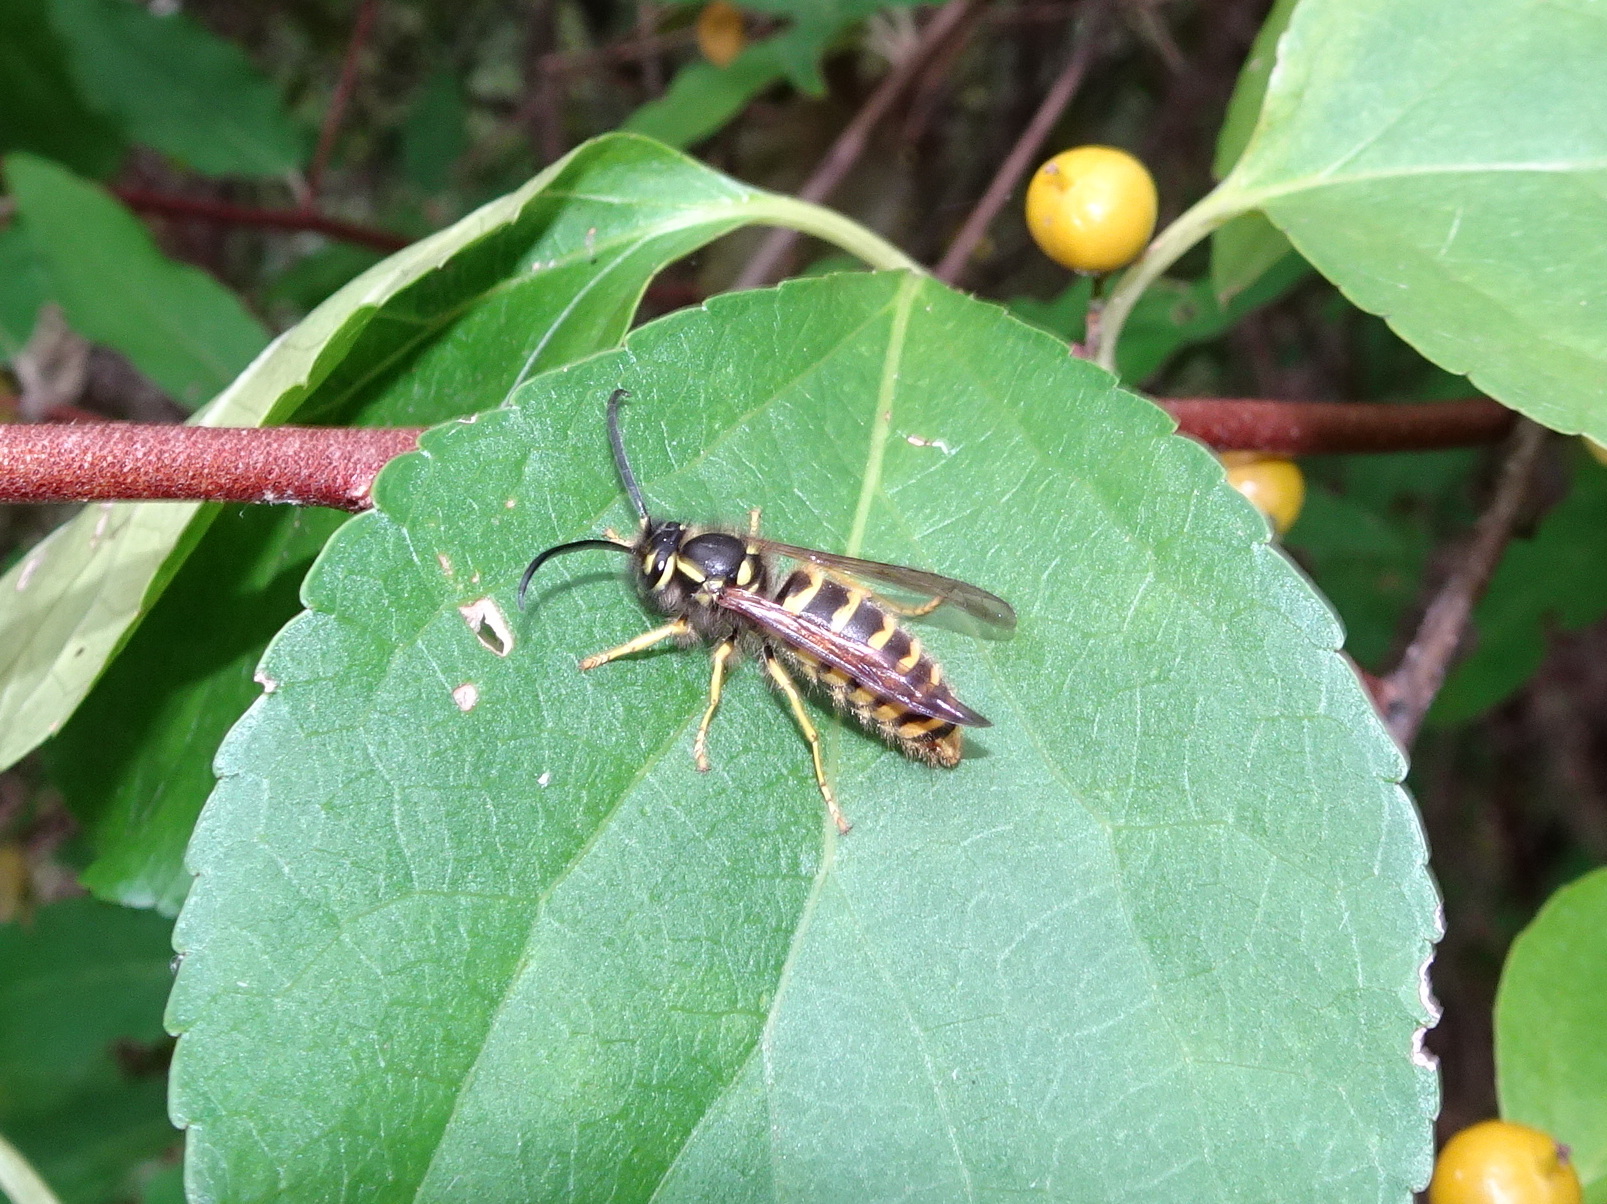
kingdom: Animalia
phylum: Arthropoda
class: Insecta
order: Hymenoptera
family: Vespidae
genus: Vespula
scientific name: Vespula flavopilosa
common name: Downy yellowjacket
